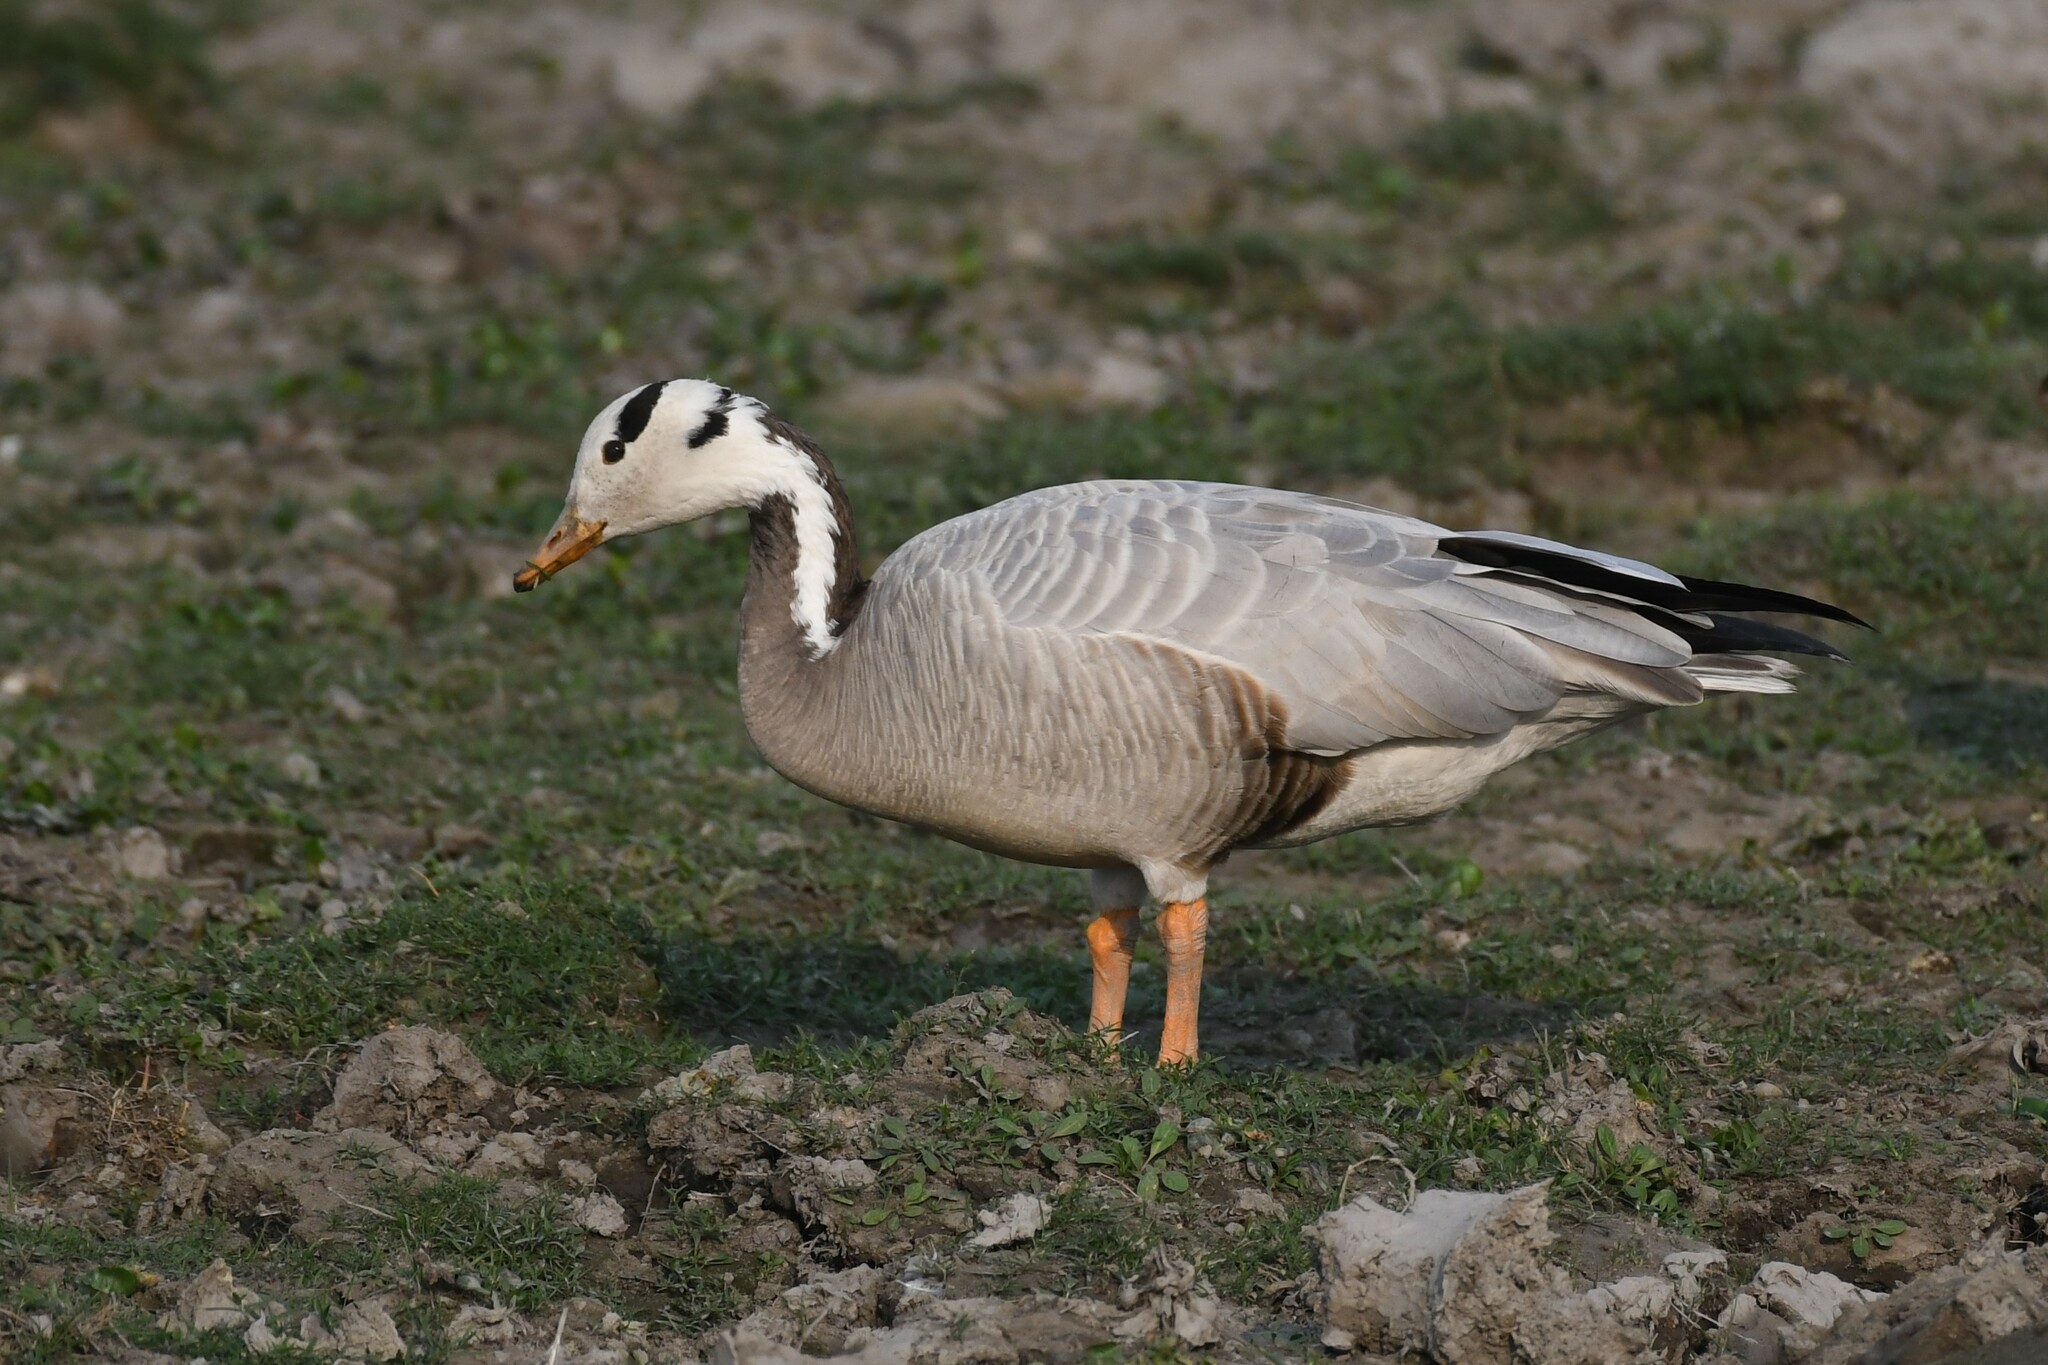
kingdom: Animalia
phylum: Chordata
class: Aves
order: Anseriformes
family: Anatidae
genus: Anser
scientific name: Anser indicus
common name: Bar-headed goose
